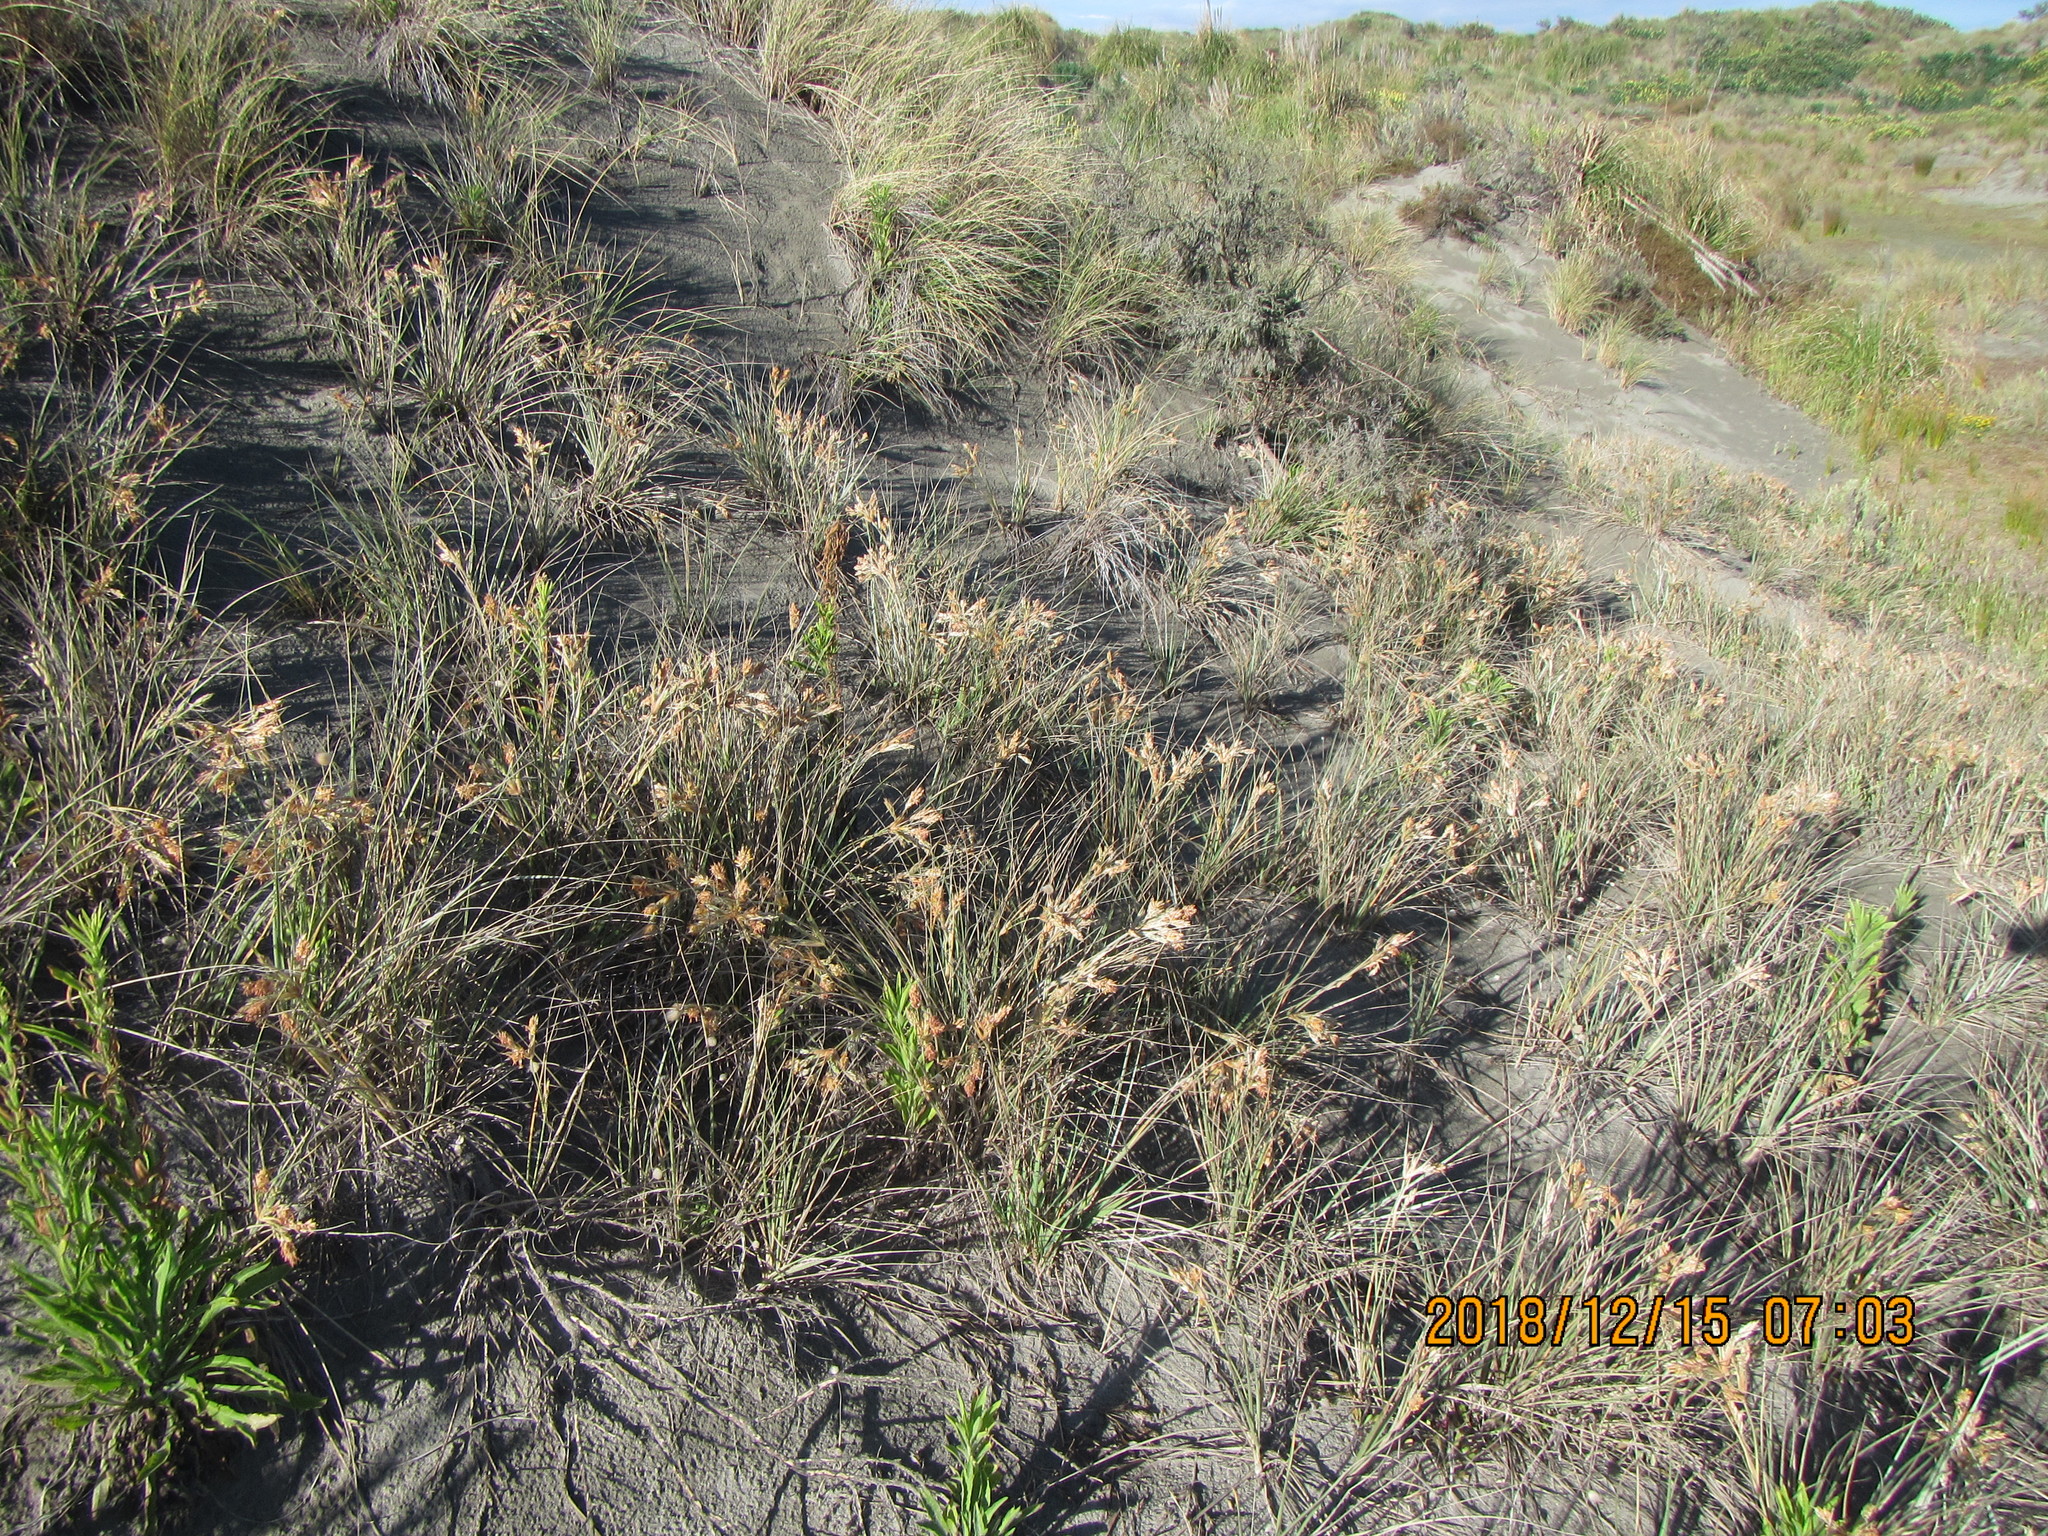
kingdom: Plantae
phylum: Tracheophyta
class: Liliopsida
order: Poales
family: Poaceae
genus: Spinifex
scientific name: Spinifex sericeus
